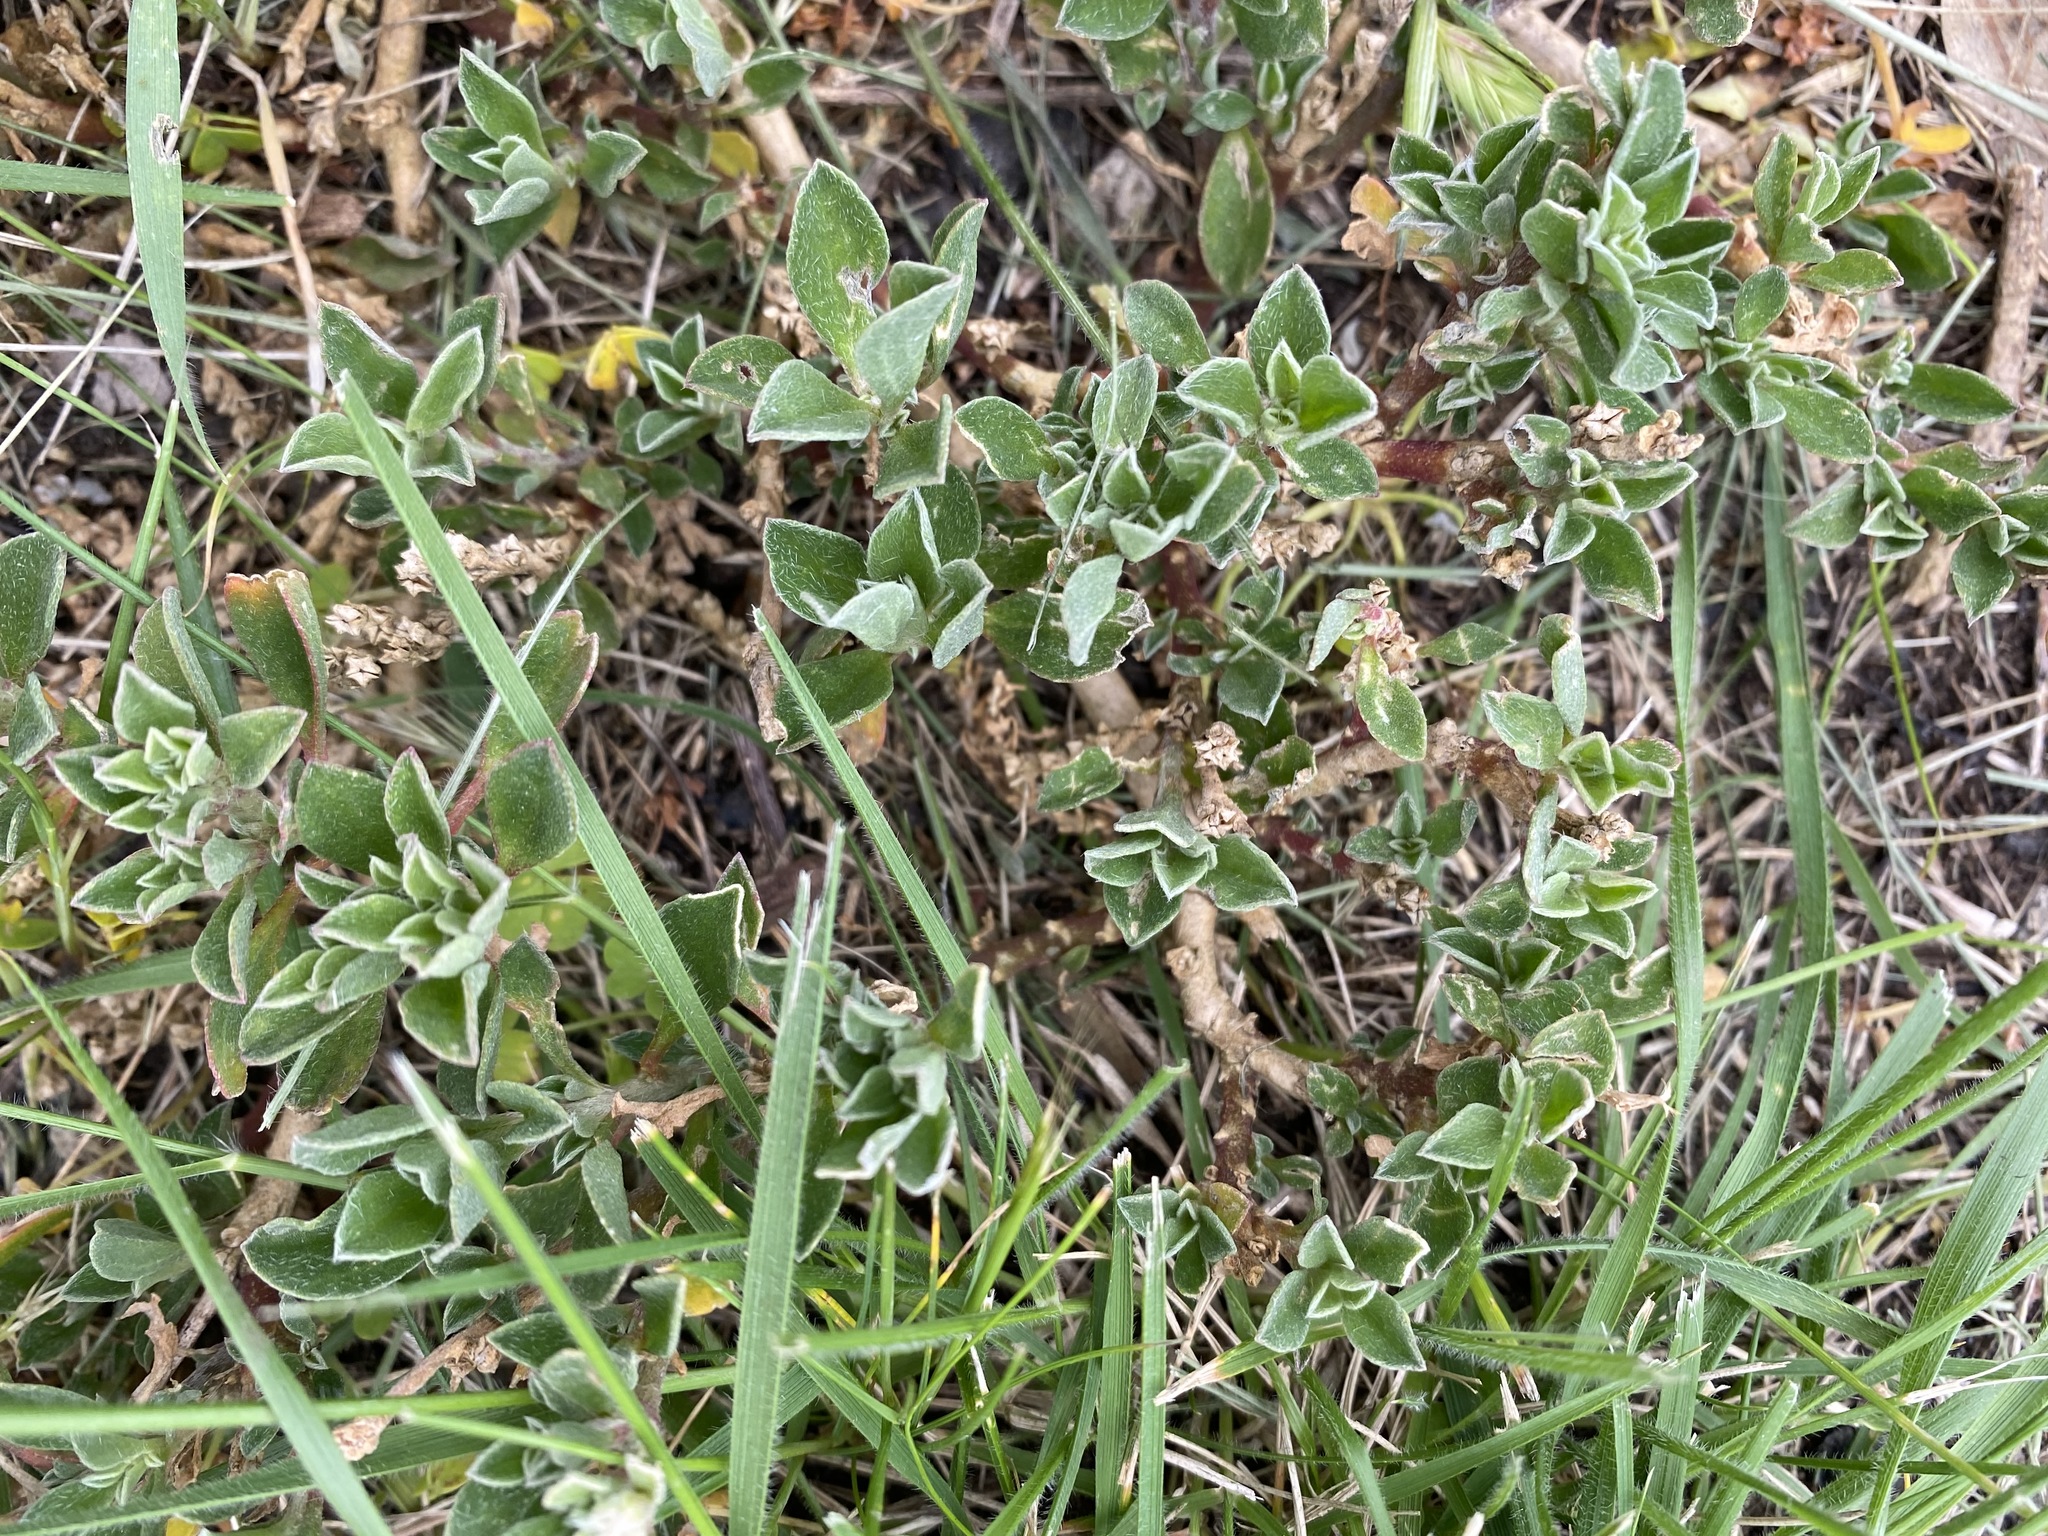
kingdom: Plantae
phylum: Tracheophyta
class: Magnoliopsida
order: Caryophyllales
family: Aizoaceae
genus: Aizoon
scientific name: Aizoon pubescens
